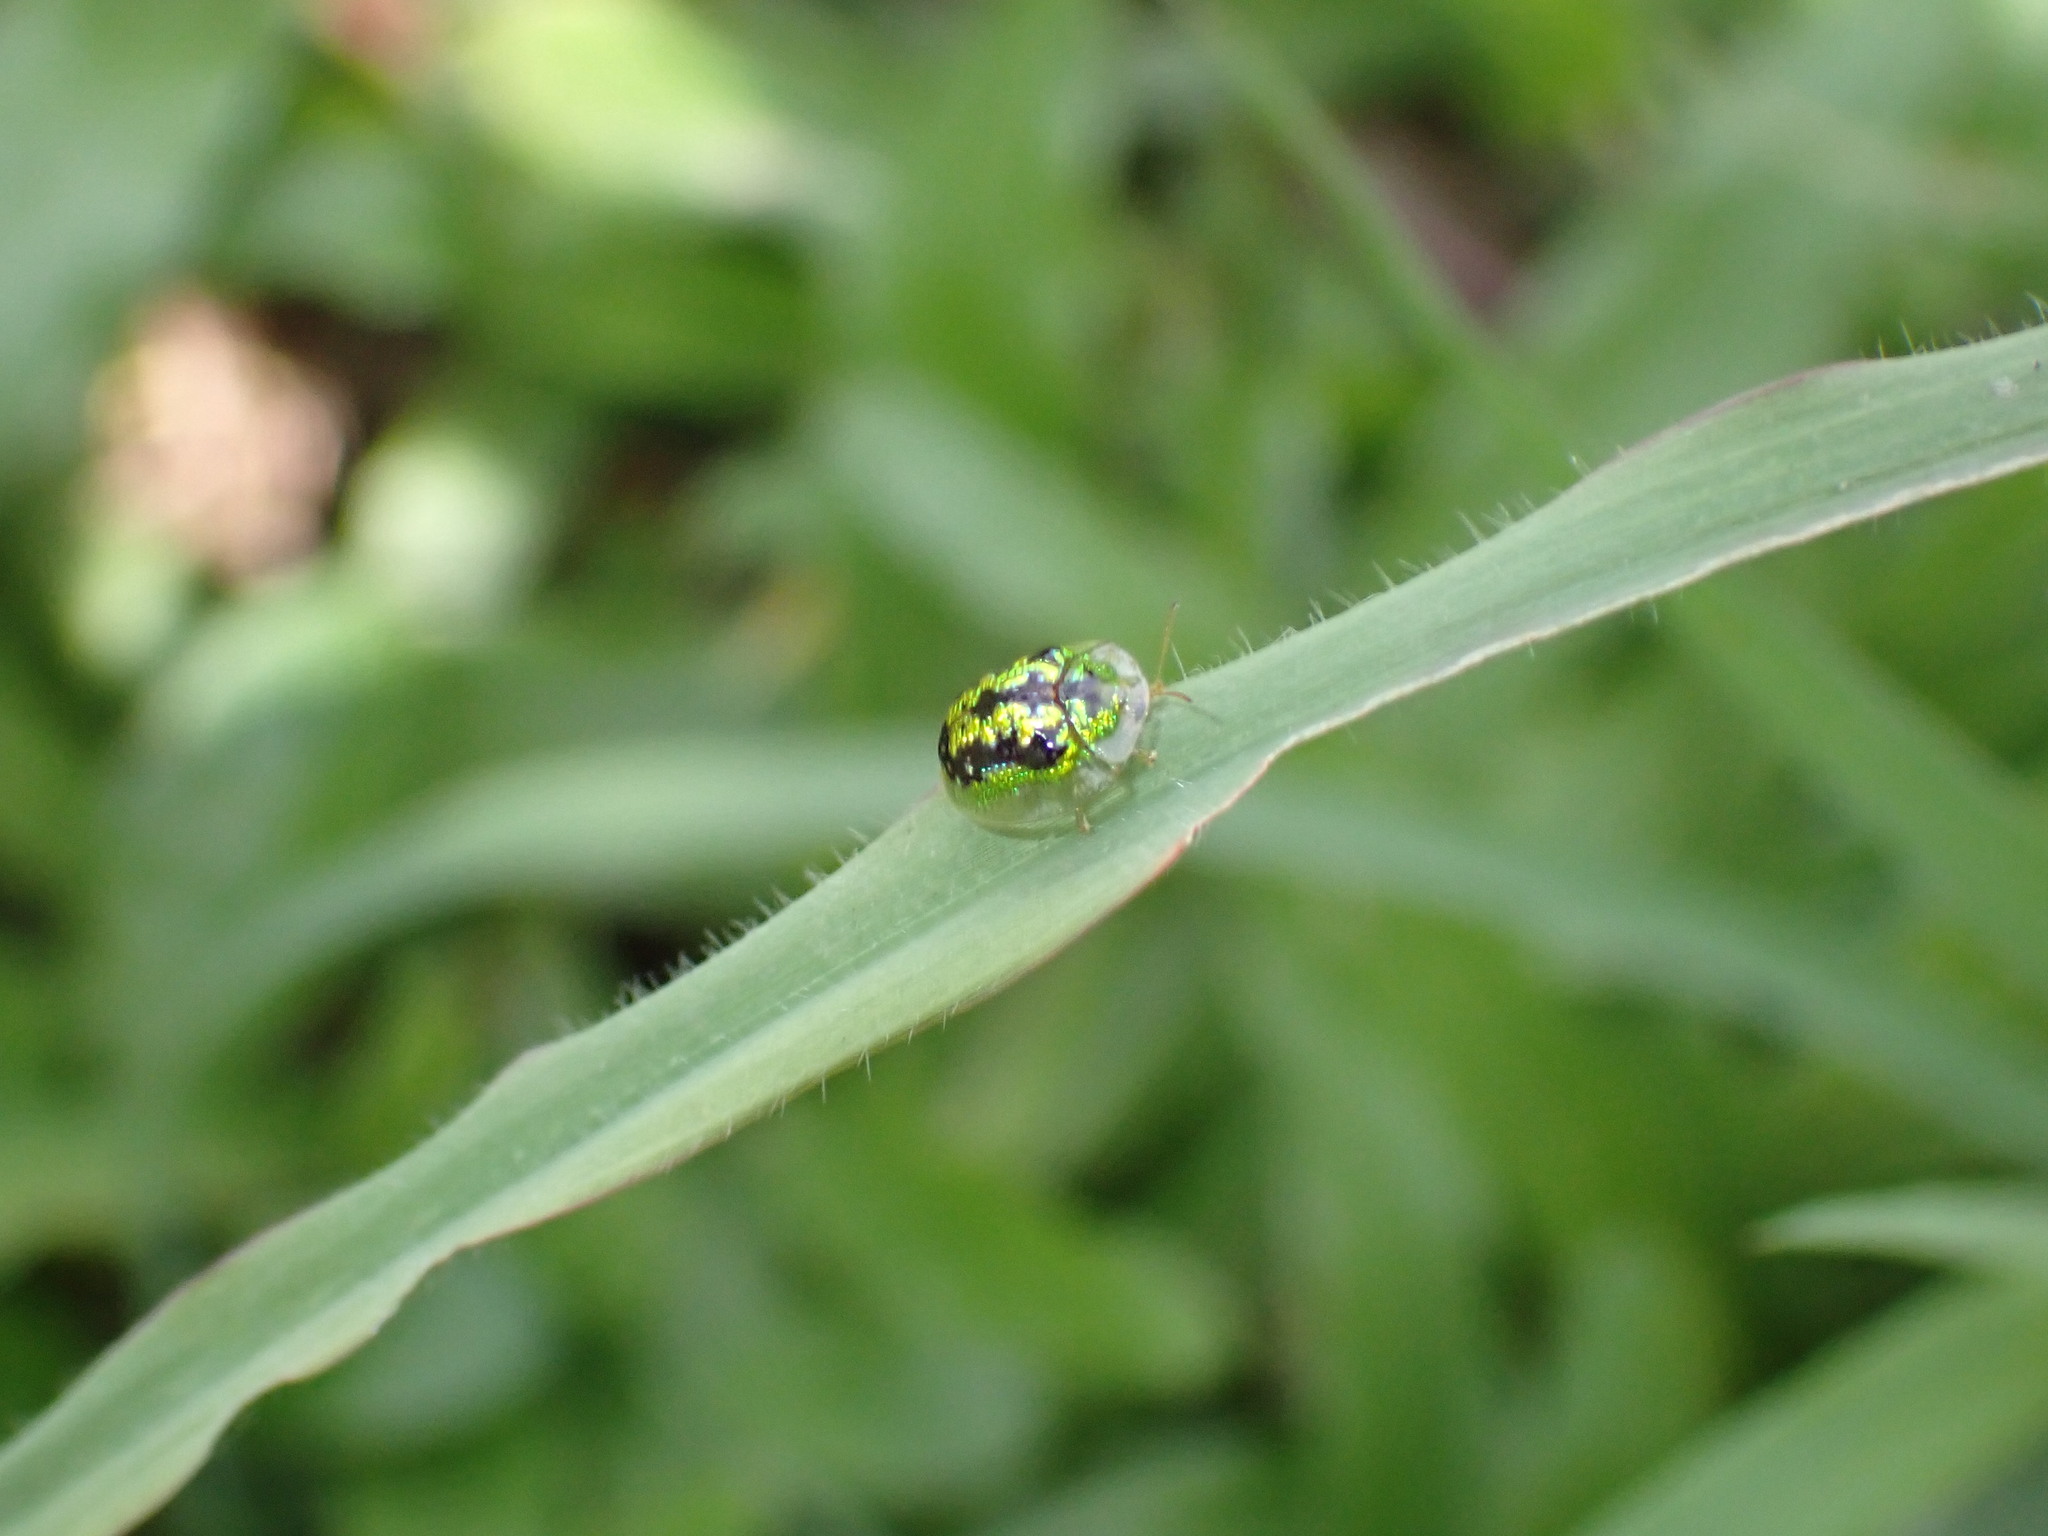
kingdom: Animalia
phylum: Arthropoda
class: Insecta
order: Coleoptera
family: Chrysomelidae
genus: Cassida
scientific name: Cassida circumdata
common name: Tortoise beetle
